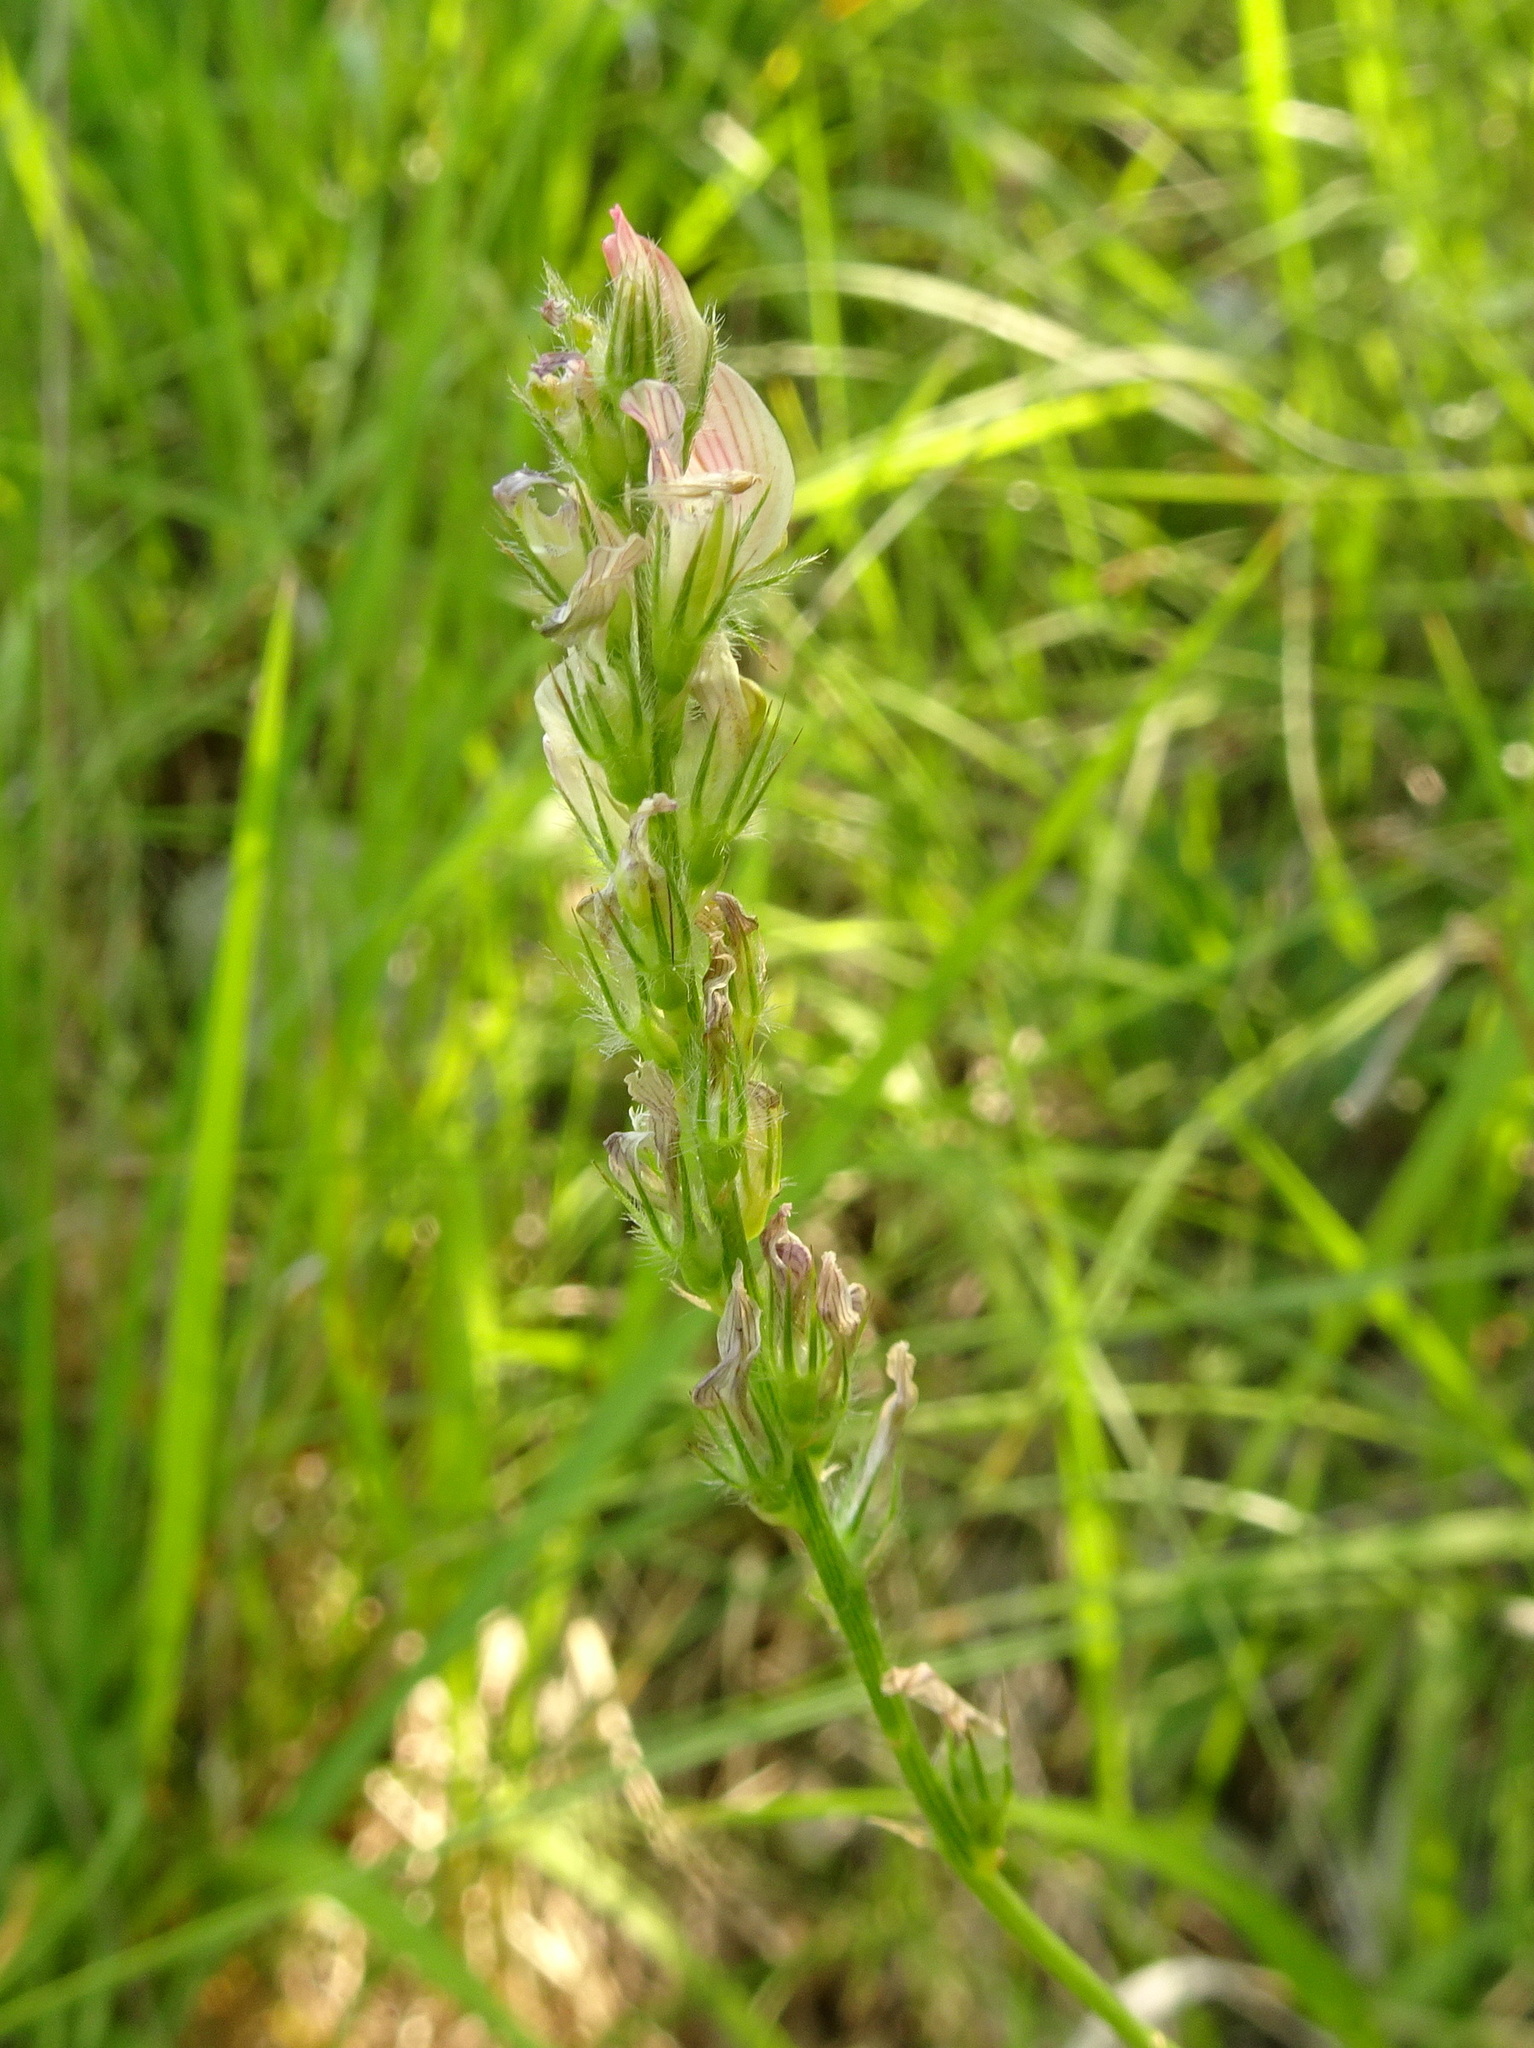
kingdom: Plantae
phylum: Tracheophyta
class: Magnoliopsida
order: Fabales
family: Fabaceae
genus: Onobrychis
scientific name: Onobrychis supina
